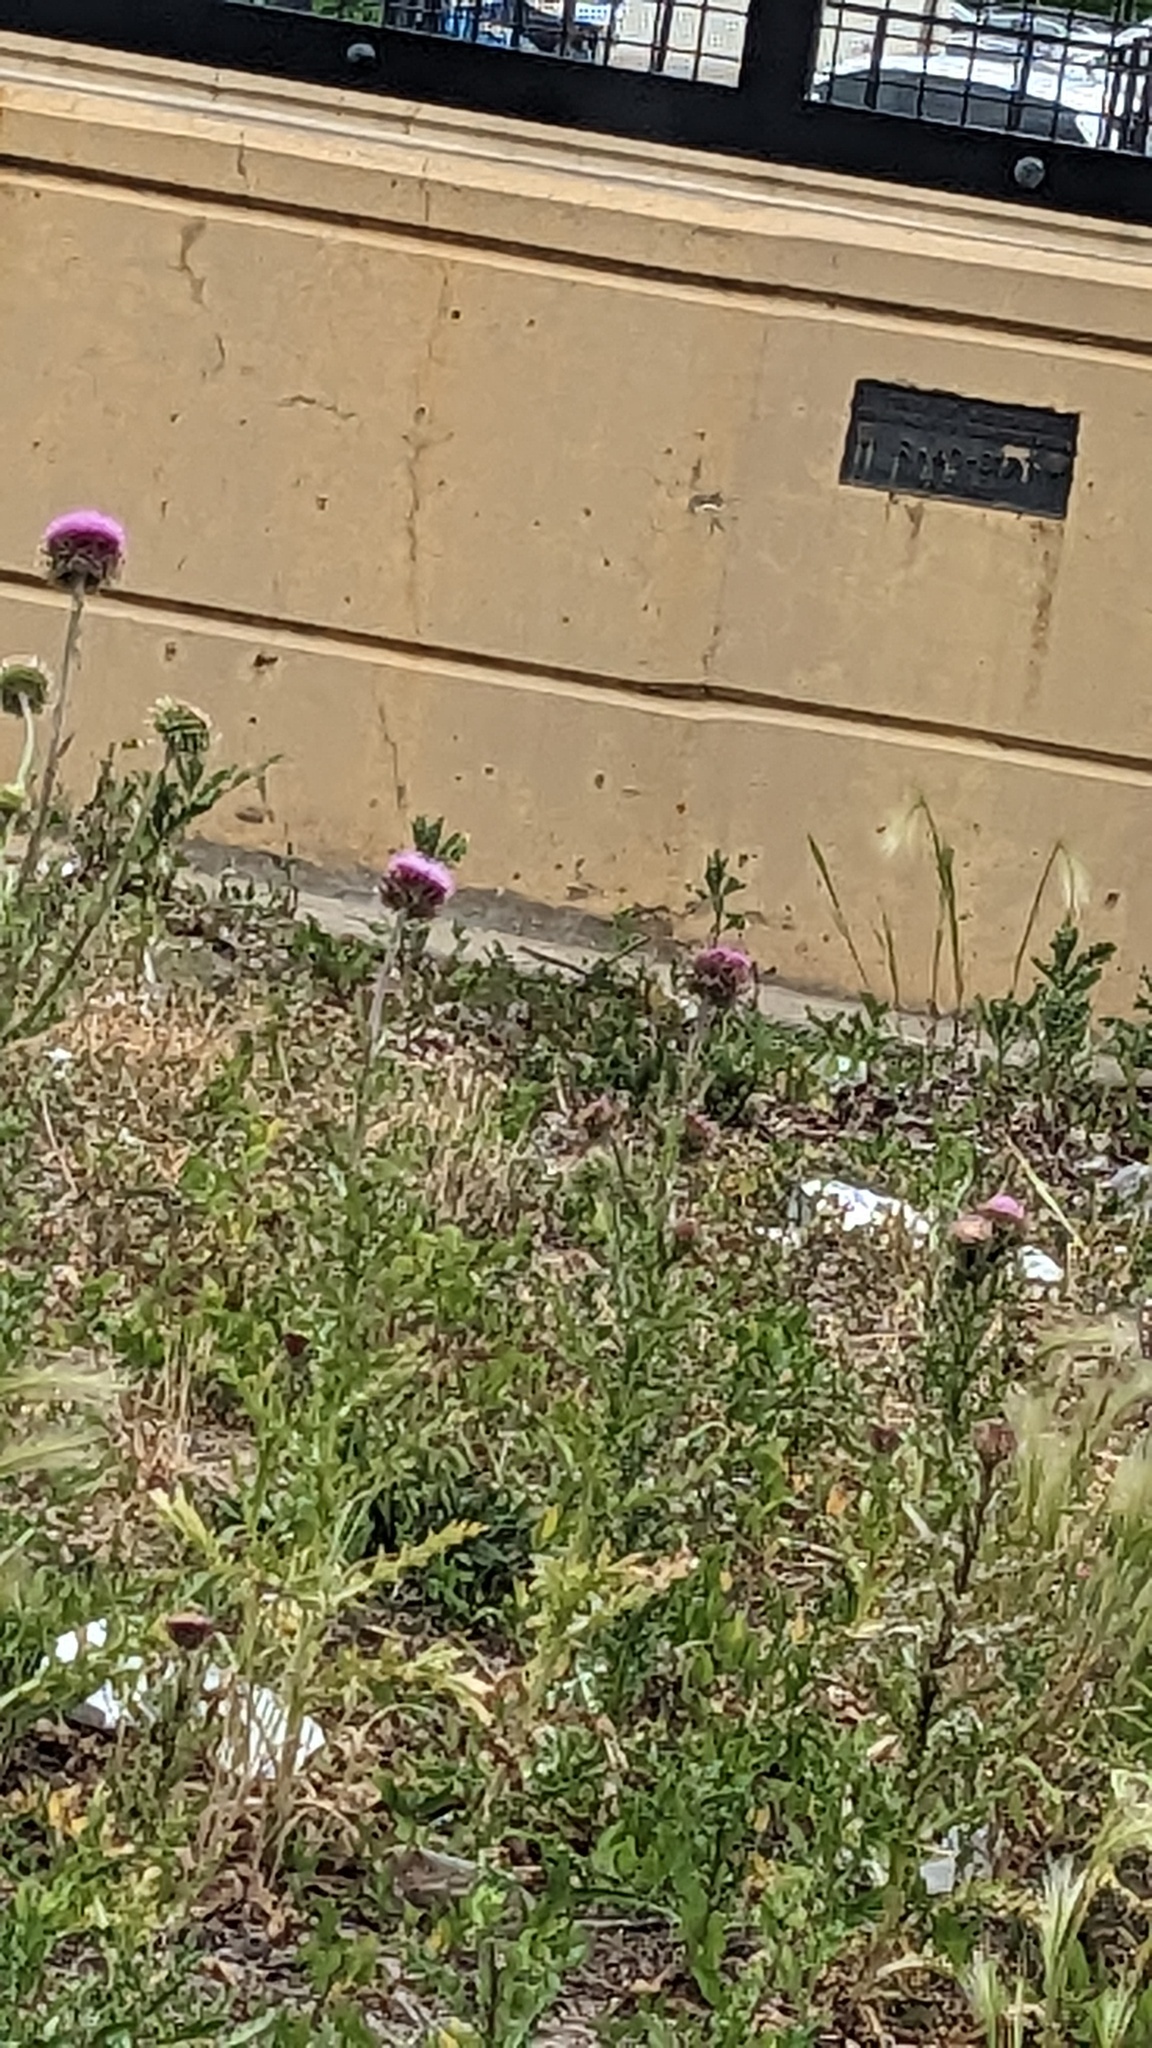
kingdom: Plantae
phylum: Tracheophyta
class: Magnoliopsida
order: Asterales
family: Asteraceae
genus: Carduus
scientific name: Carduus nutans
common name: Musk thistle
